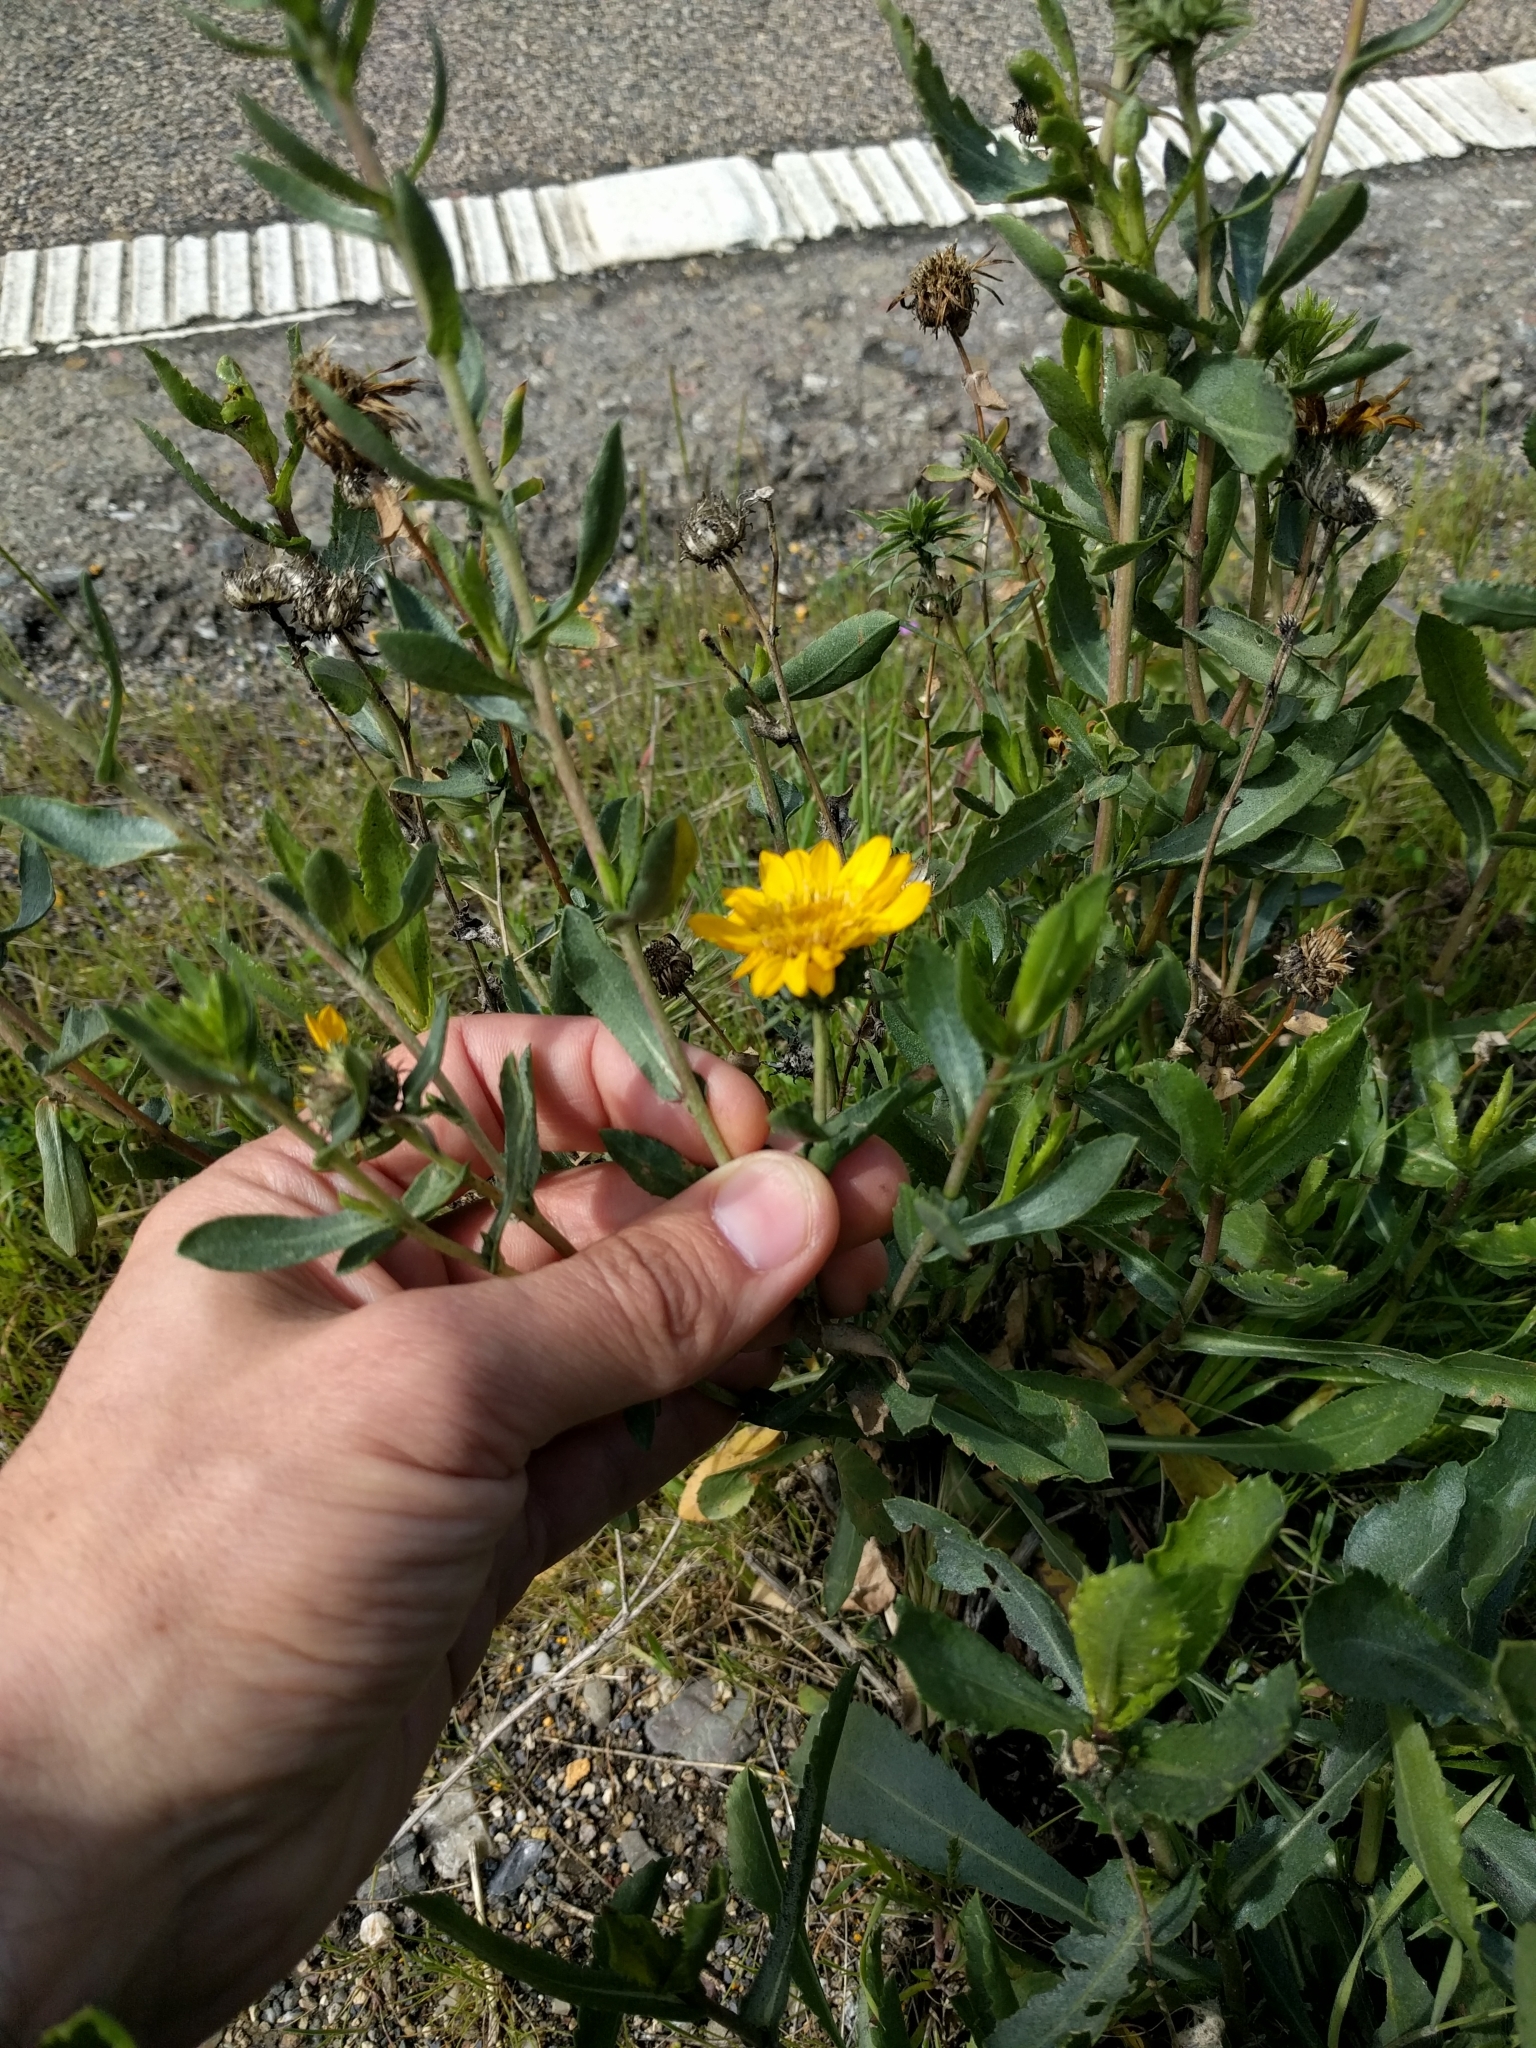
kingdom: Plantae
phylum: Tracheophyta
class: Magnoliopsida
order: Asterales
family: Asteraceae
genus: Grindelia
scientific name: Grindelia hirsutula
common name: Hairy gumweed
